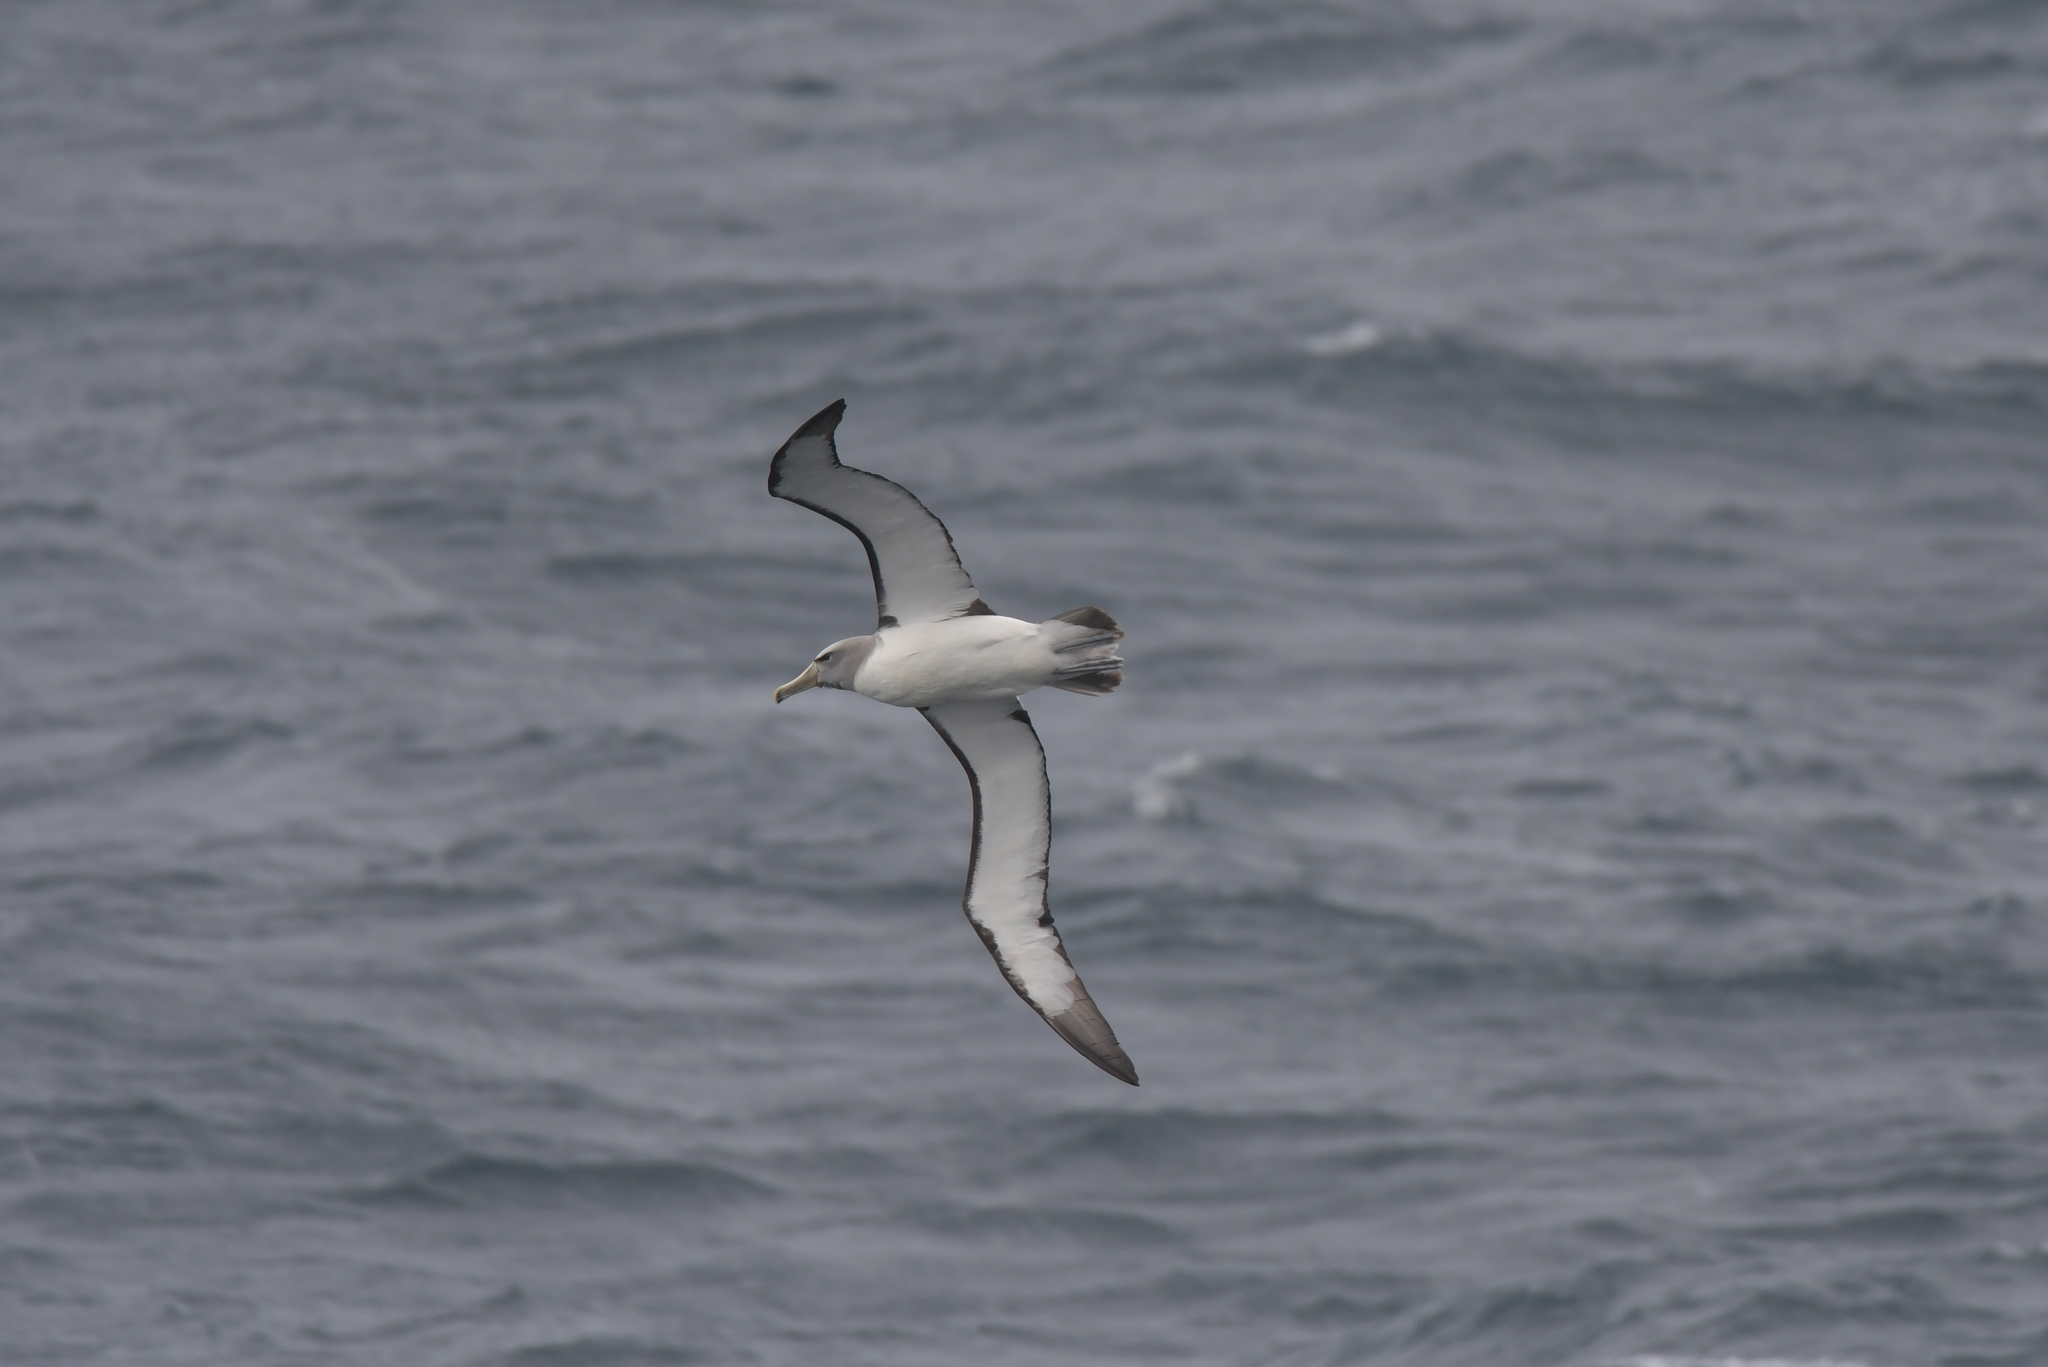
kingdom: Animalia
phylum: Chordata
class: Aves
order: Procellariiformes
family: Diomedeidae
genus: Thalassarche
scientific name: Thalassarche salvini
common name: Salvin's albatross
